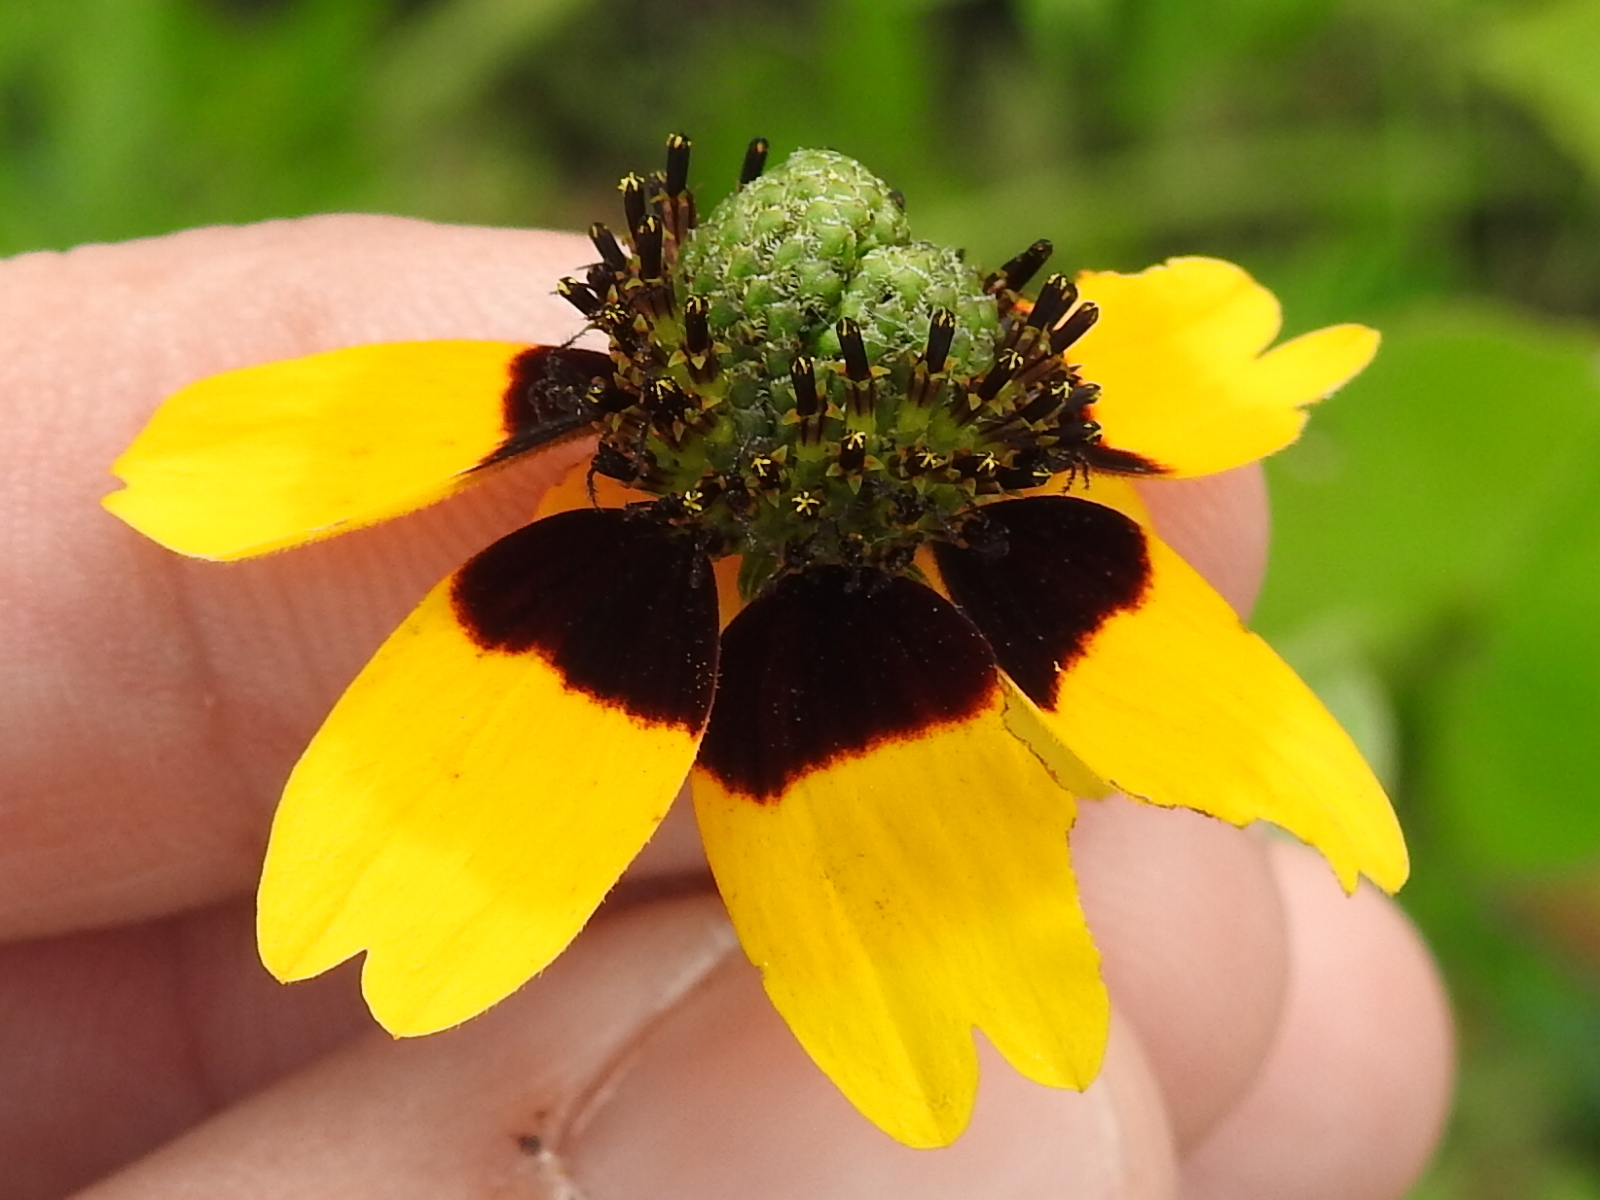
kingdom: Plantae
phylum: Tracheophyta
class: Magnoliopsida
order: Asterales
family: Asteraceae
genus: Rudbeckia
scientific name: Rudbeckia amplexicaulis
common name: Clasping-leaf coneflower
